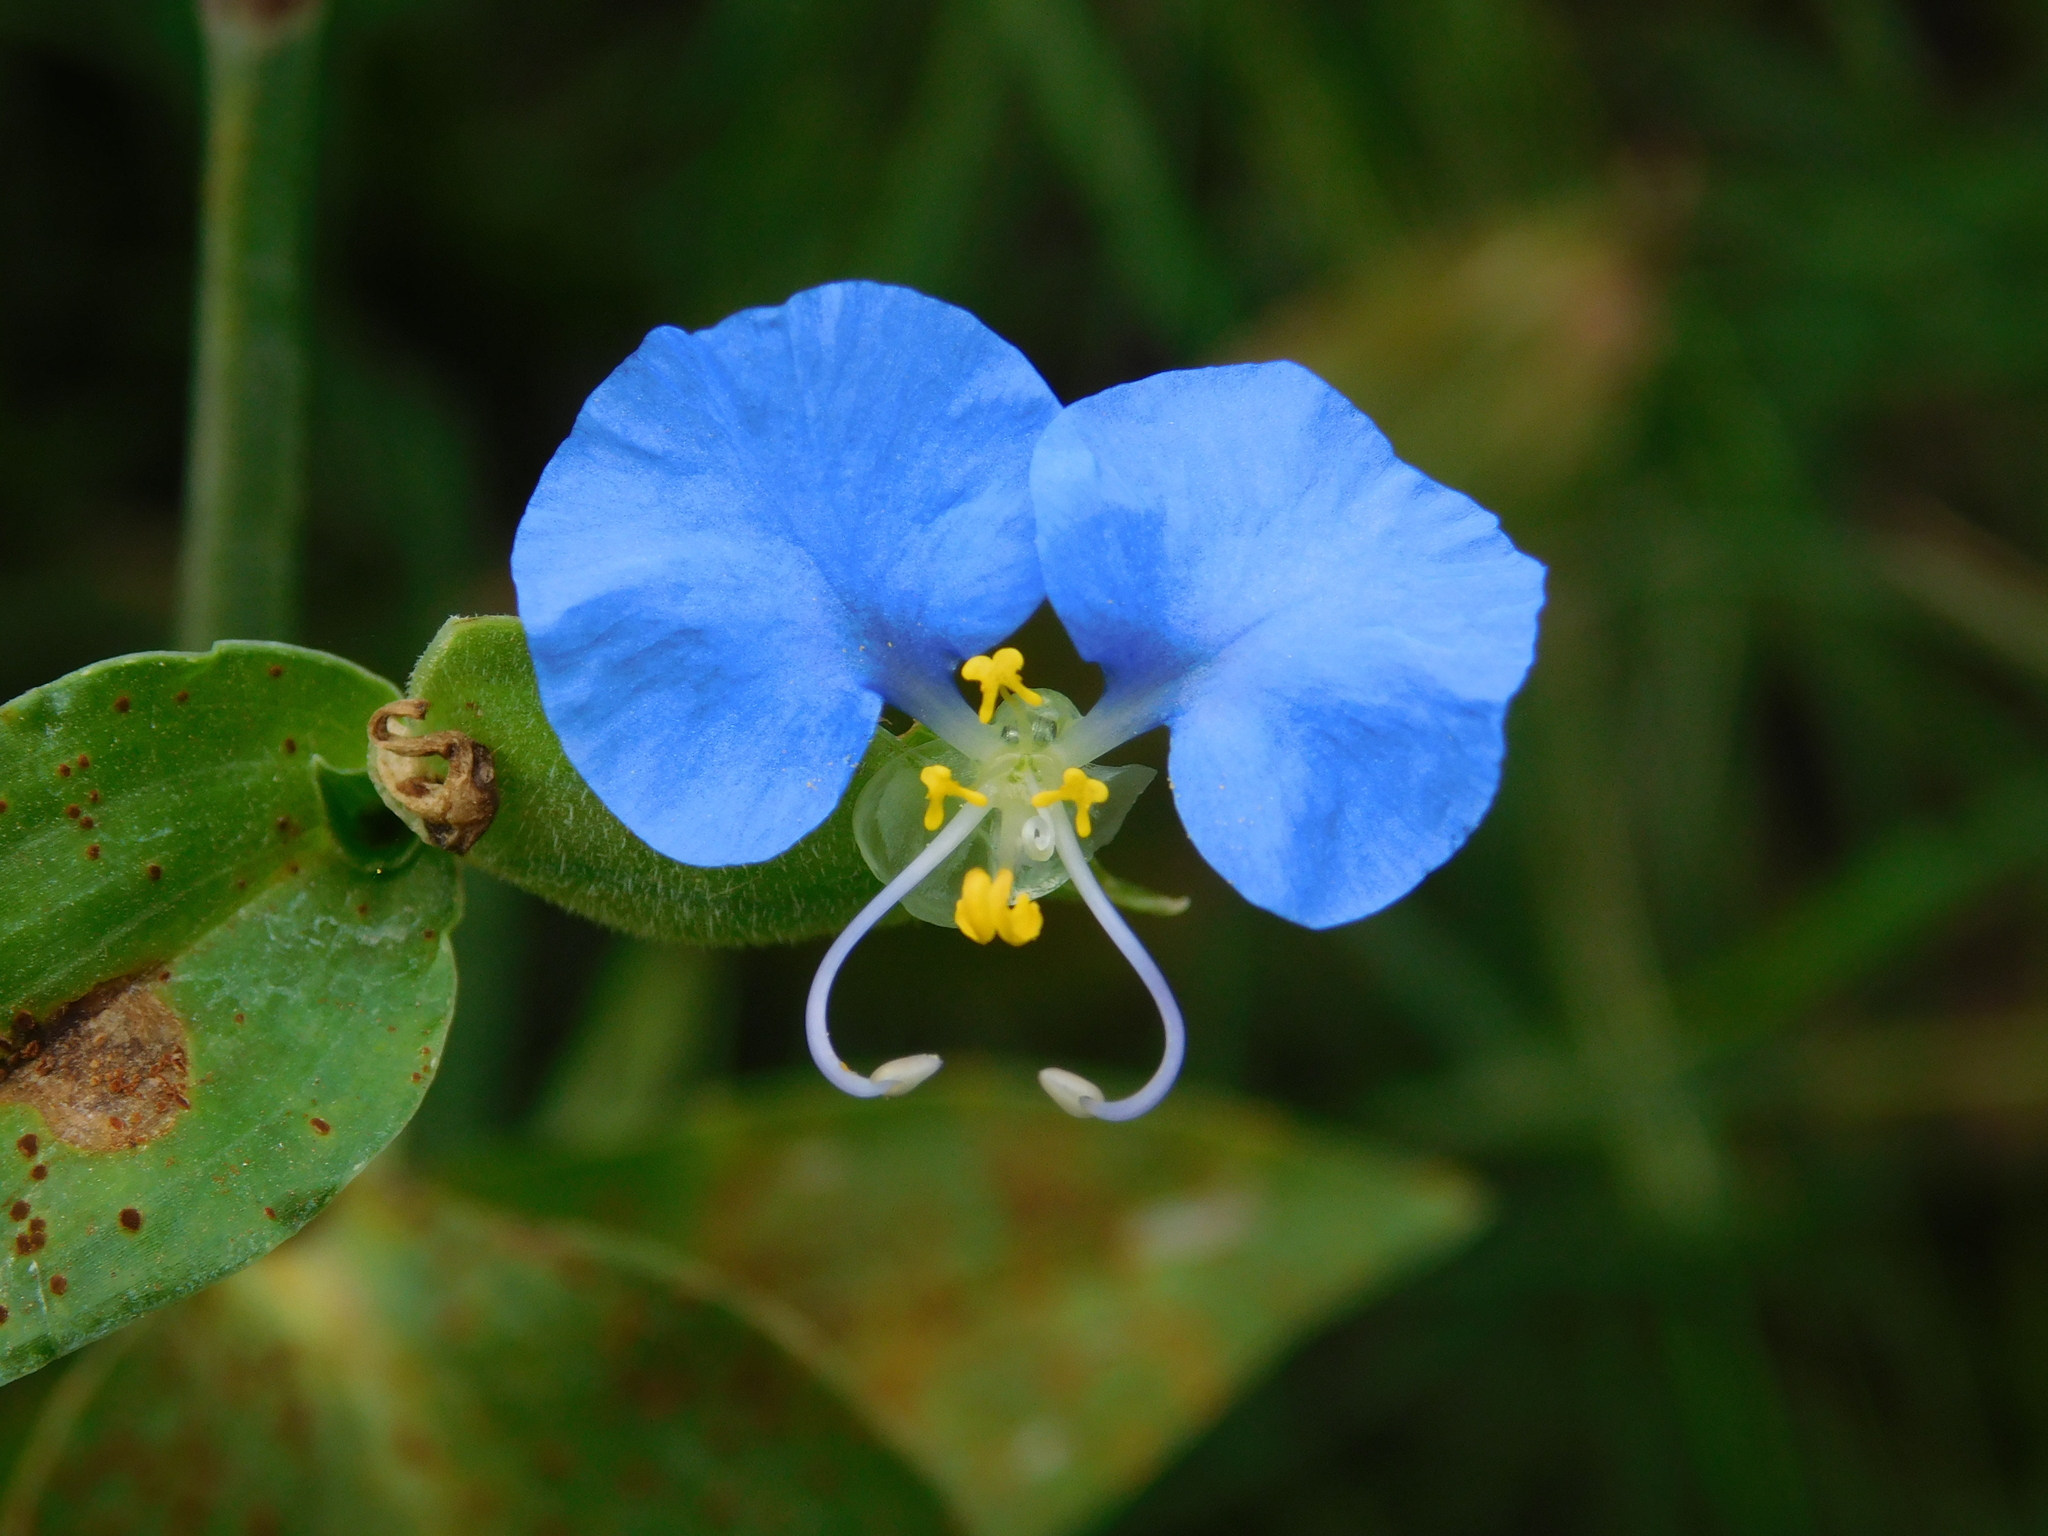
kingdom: Plantae
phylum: Tracheophyta
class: Liliopsida
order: Commelinales
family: Commelinaceae
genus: Commelina
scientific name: Commelina erecta
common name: Blousel blommetjie
